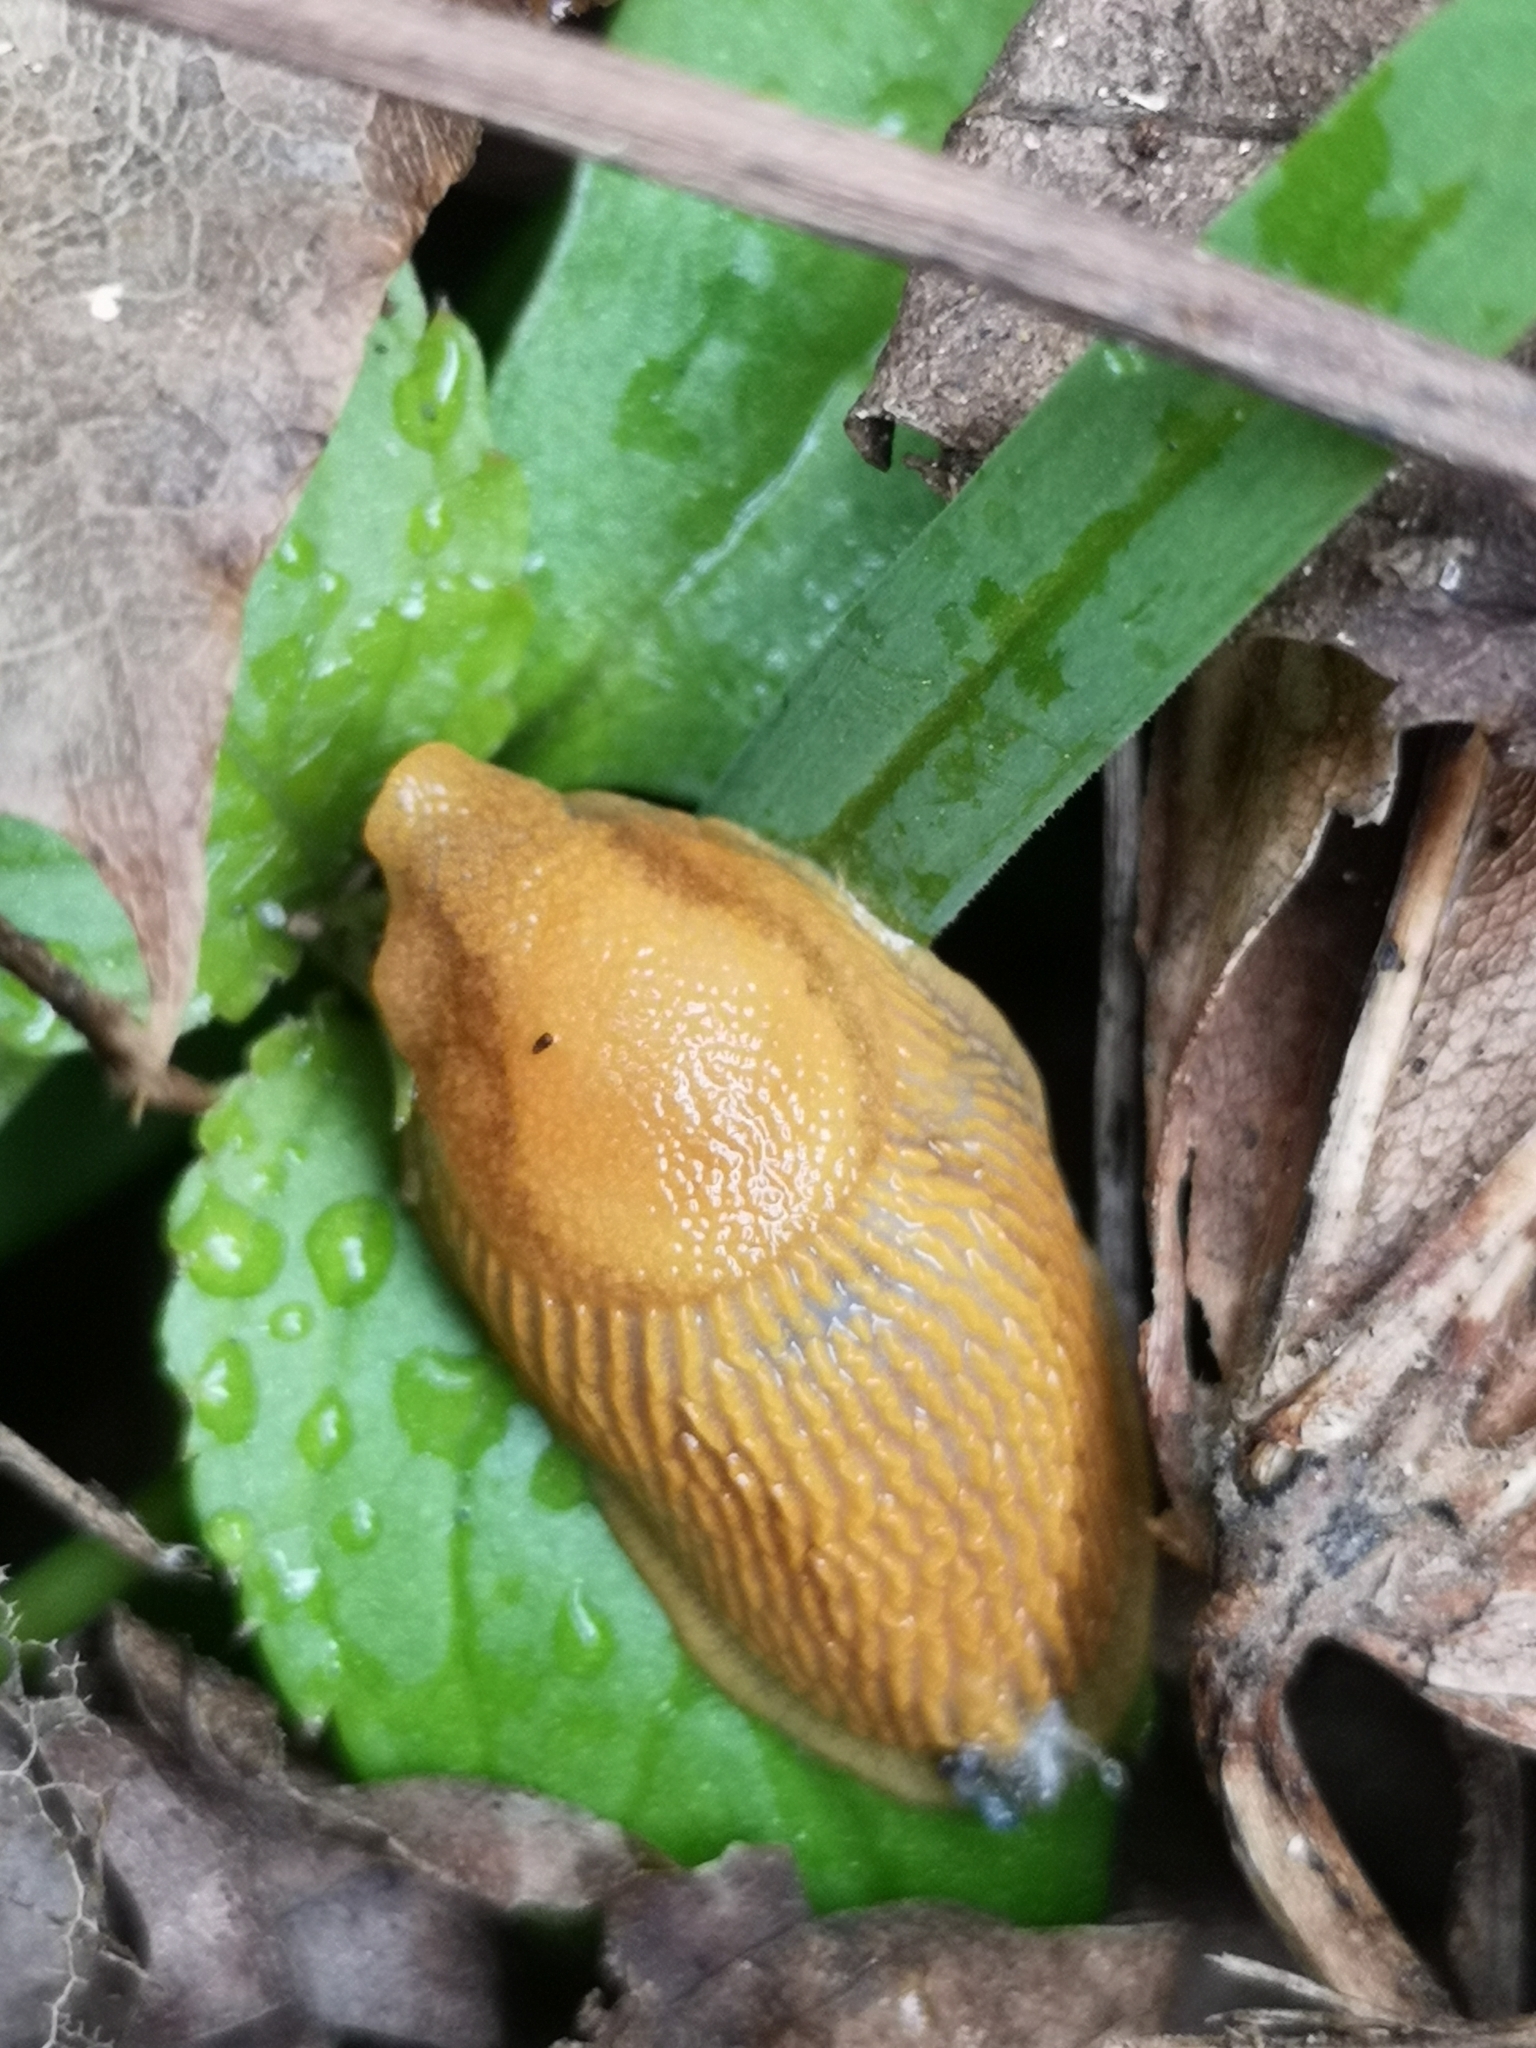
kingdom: Animalia
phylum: Mollusca
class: Gastropoda
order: Stylommatophora
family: Arionidae
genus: Arion
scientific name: Arion vulgaris
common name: Lusitanian slug
